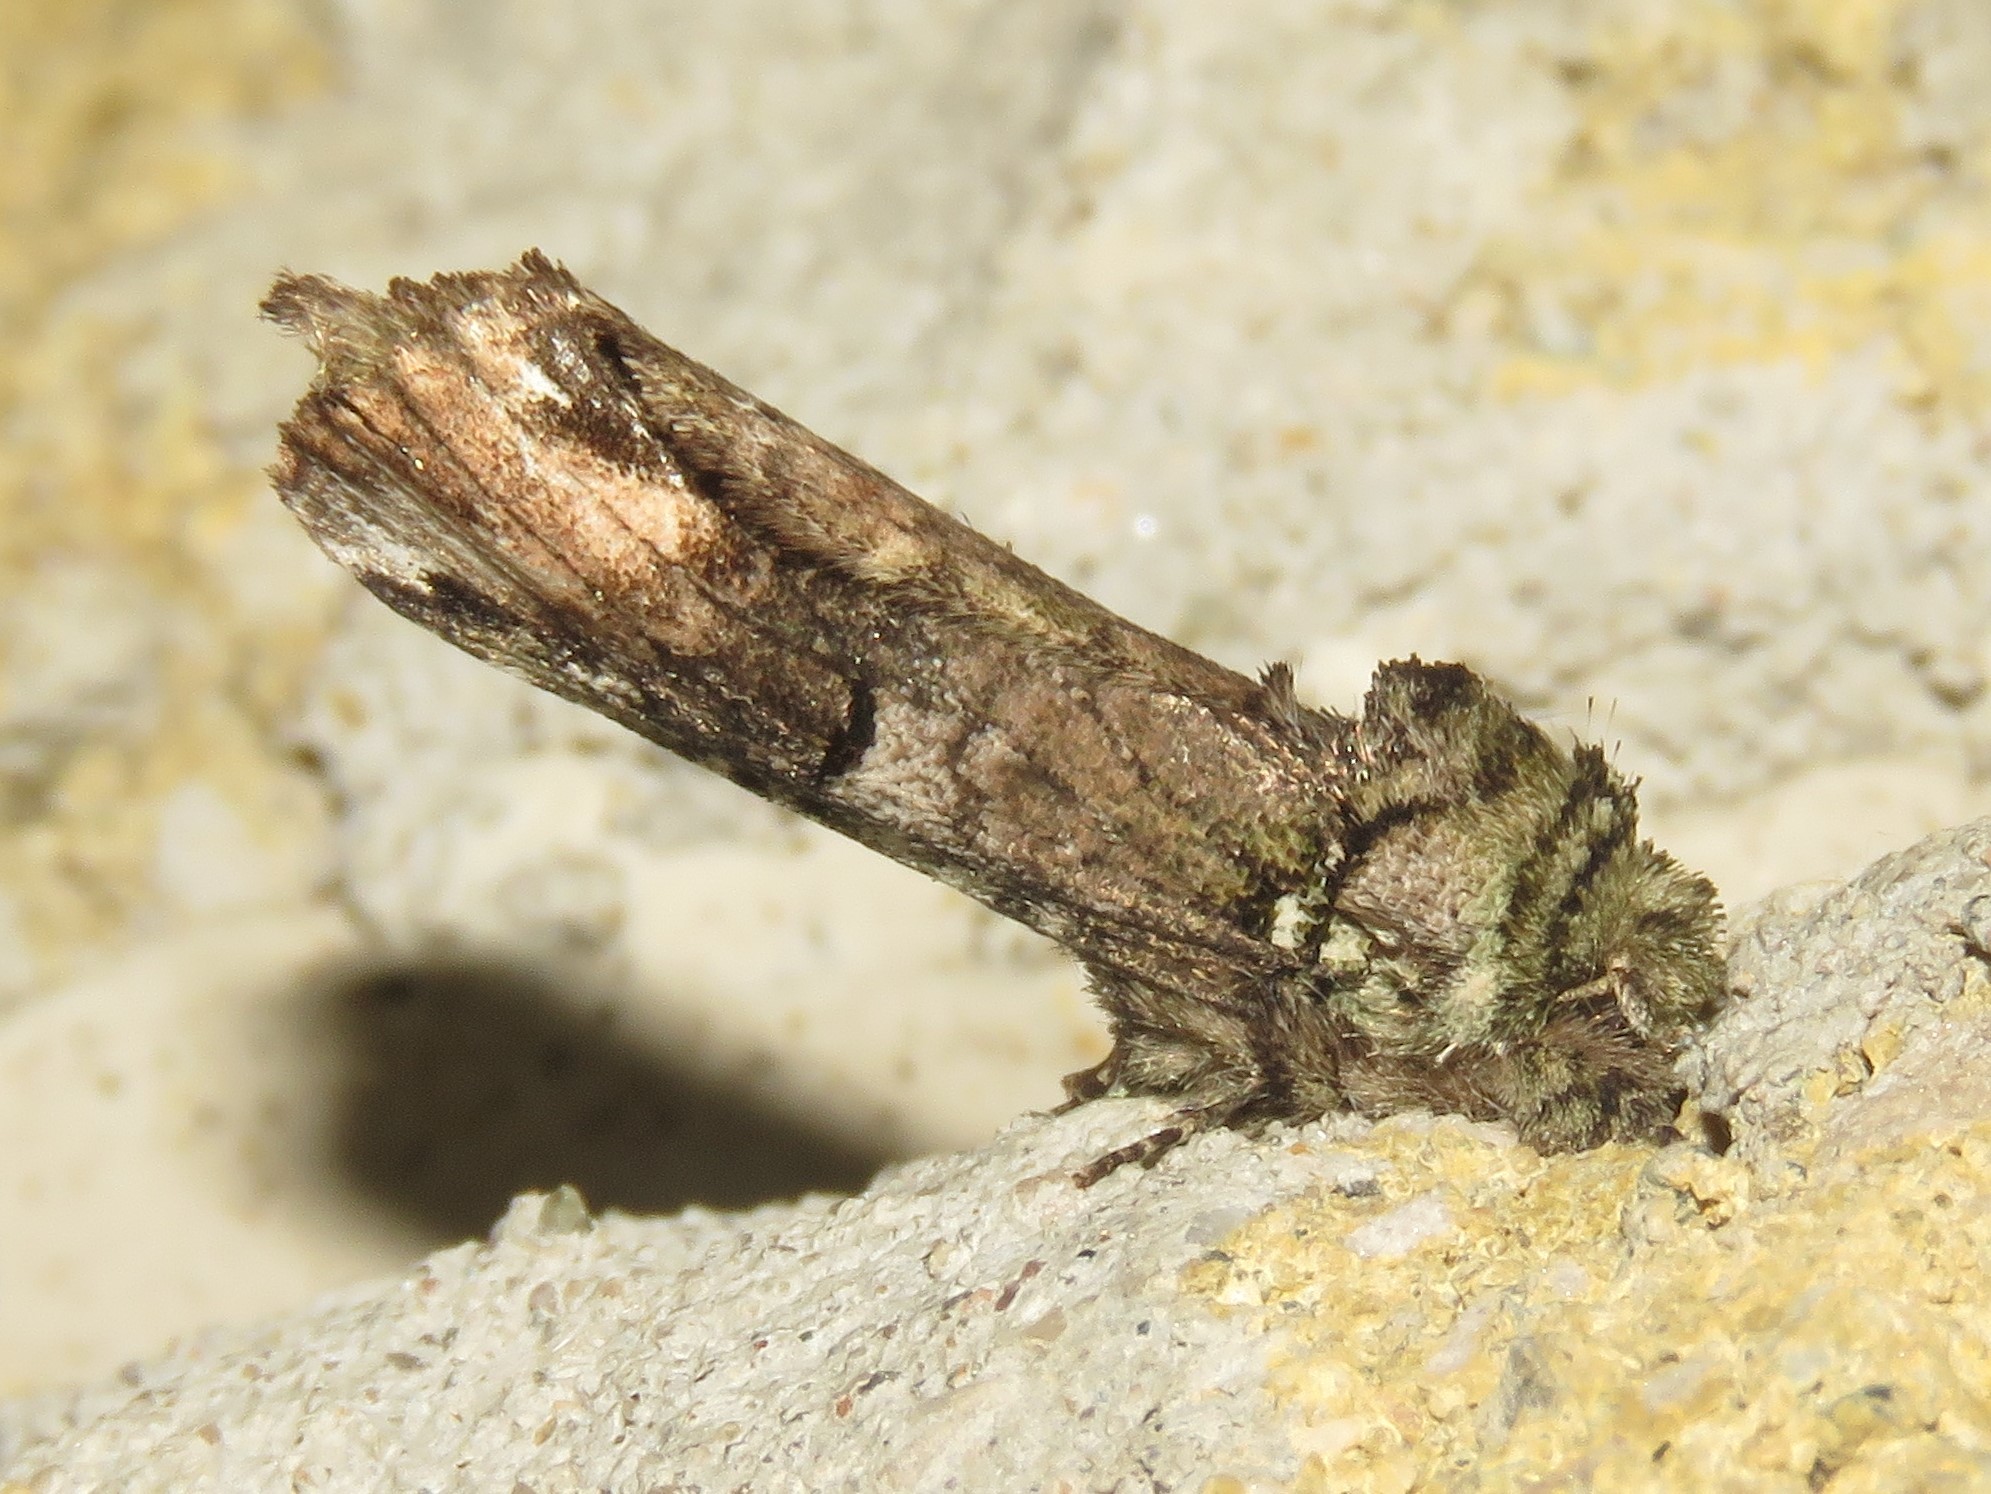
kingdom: Animalia
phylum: Arthropoda
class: Insecta
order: Lepidoptera
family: Notodontidae
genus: Schizura
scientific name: Schizura
